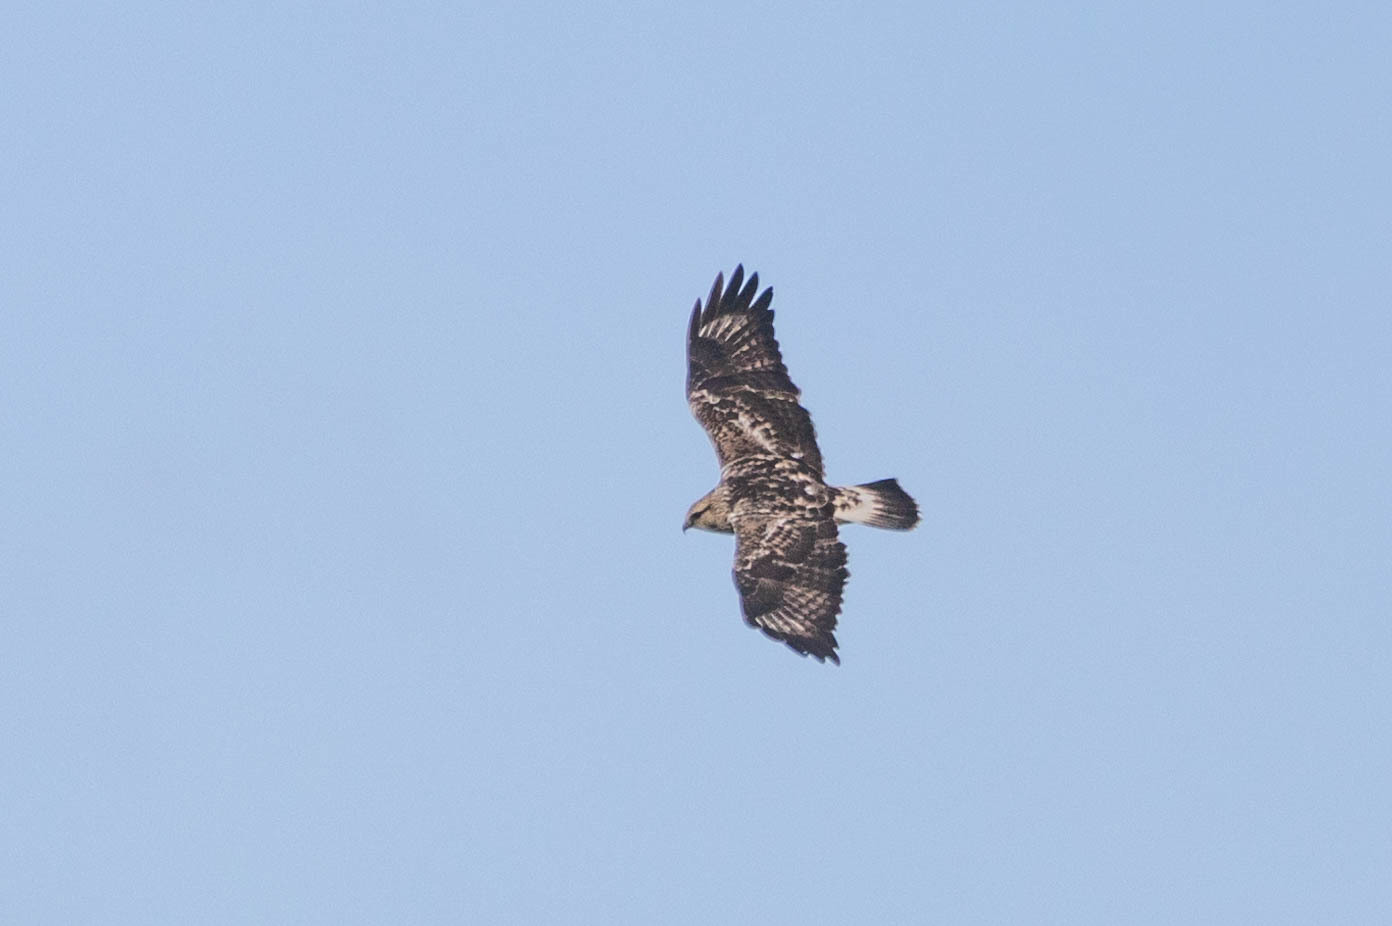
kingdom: Animalia
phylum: Chordata
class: Aves
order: Accipitriformes
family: Accipitridae
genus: Buteo
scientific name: Buteo lagopus
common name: Rough-legged buzzard
